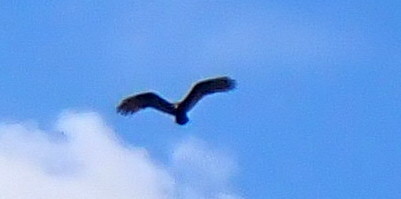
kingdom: Animalia
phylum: Chordata
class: Aves
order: Accipitriformes
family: Cathartidae
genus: Cathartes
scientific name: Cathartes aura
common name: Turkey vulture
